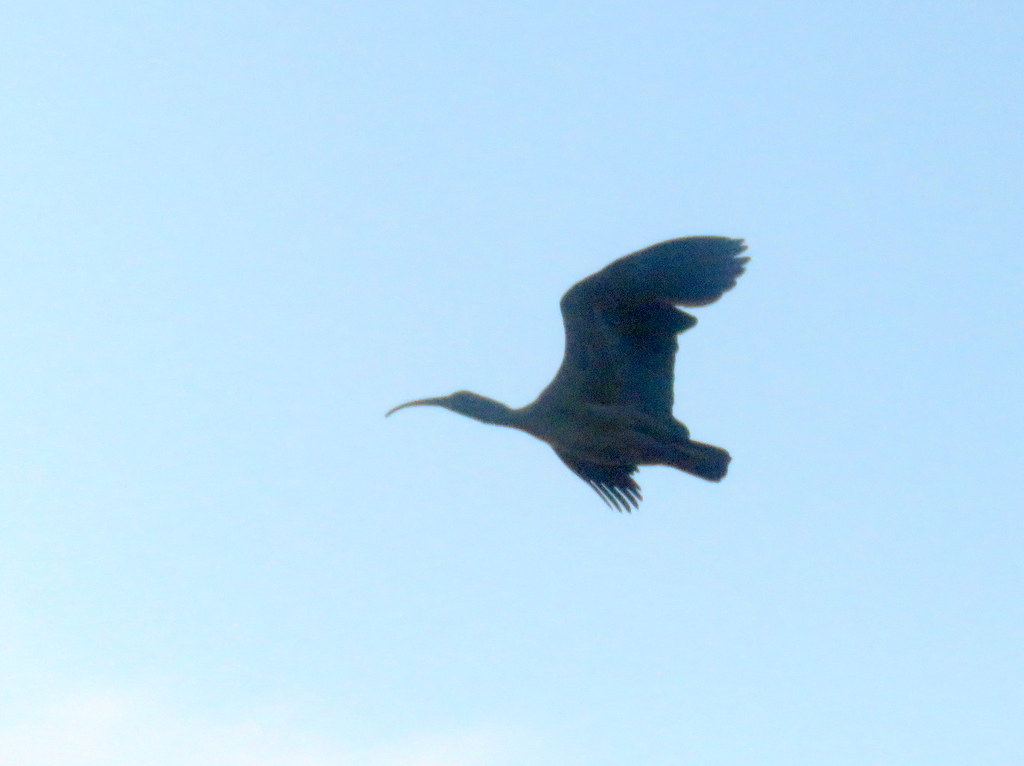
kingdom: Animalia
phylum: Chordata
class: Aves
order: Pelecaniformes
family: Threskiornithidae
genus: Theristicus
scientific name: Theristicus caerulescens
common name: Plumbeous ibis
